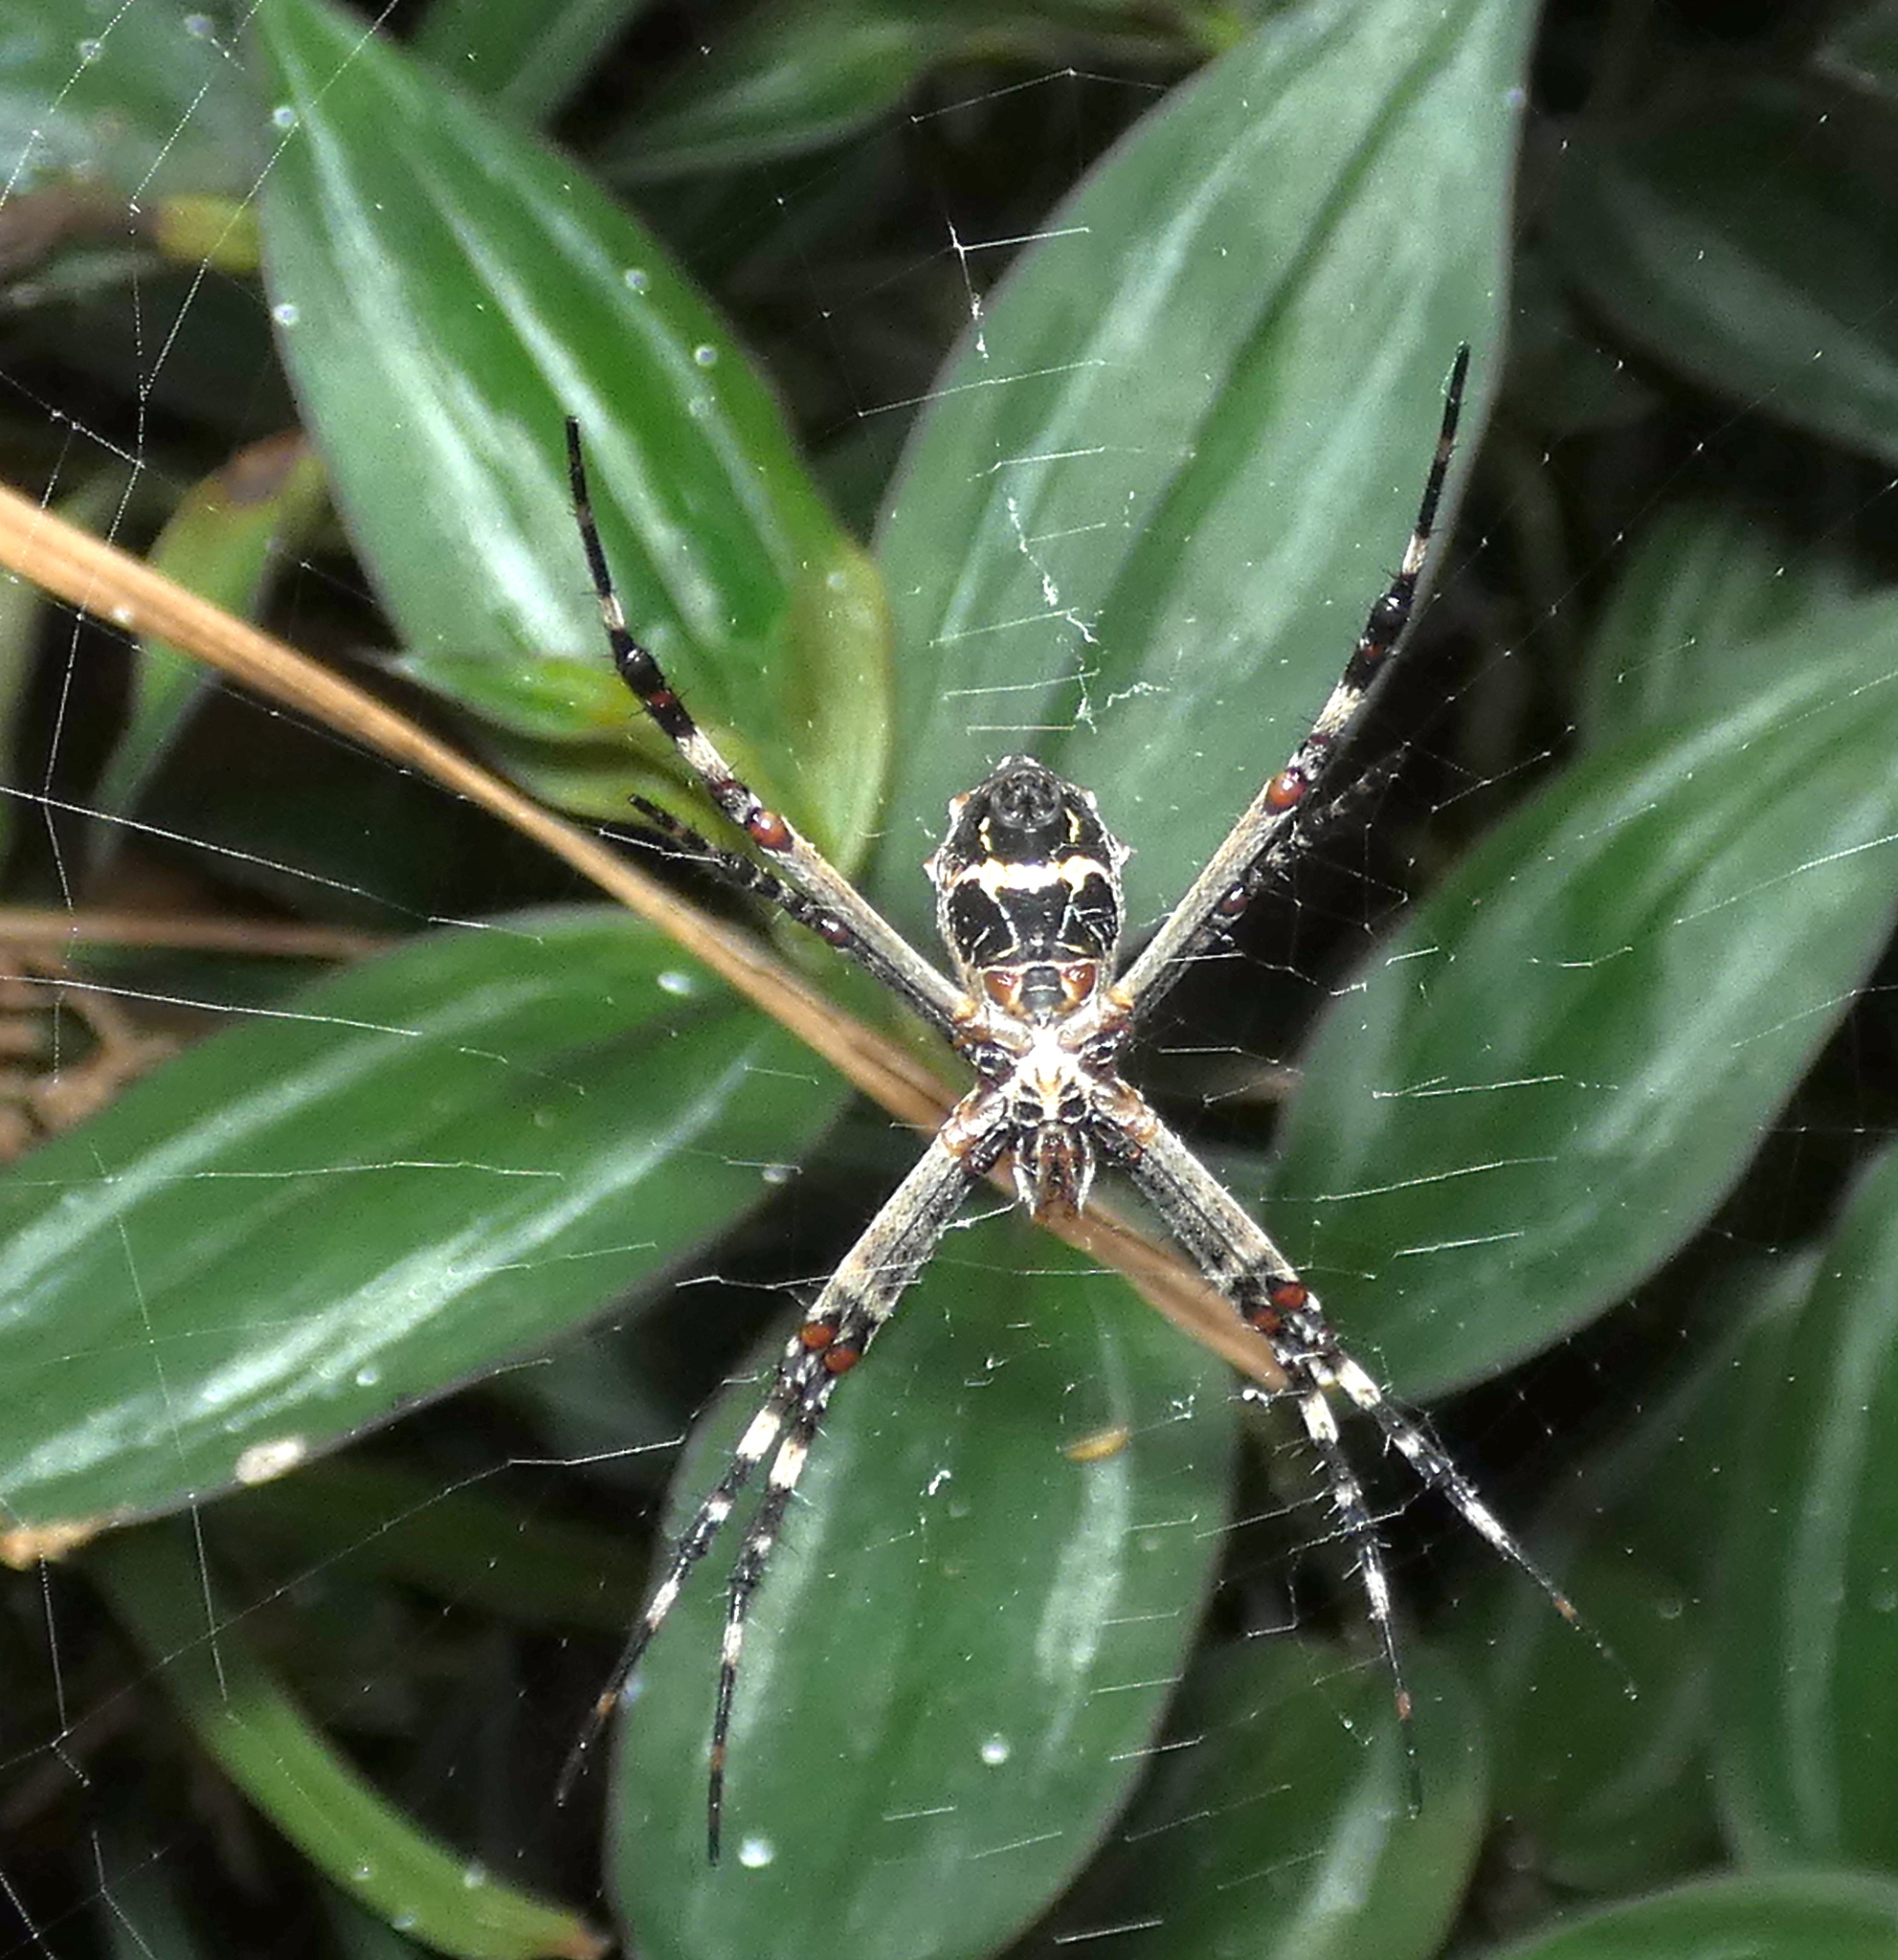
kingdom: Animalia
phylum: Arthropoda
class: Arachnida
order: Araneae
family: Araneidae
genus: Argiope
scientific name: Argiope argentata
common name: Orb weavers
